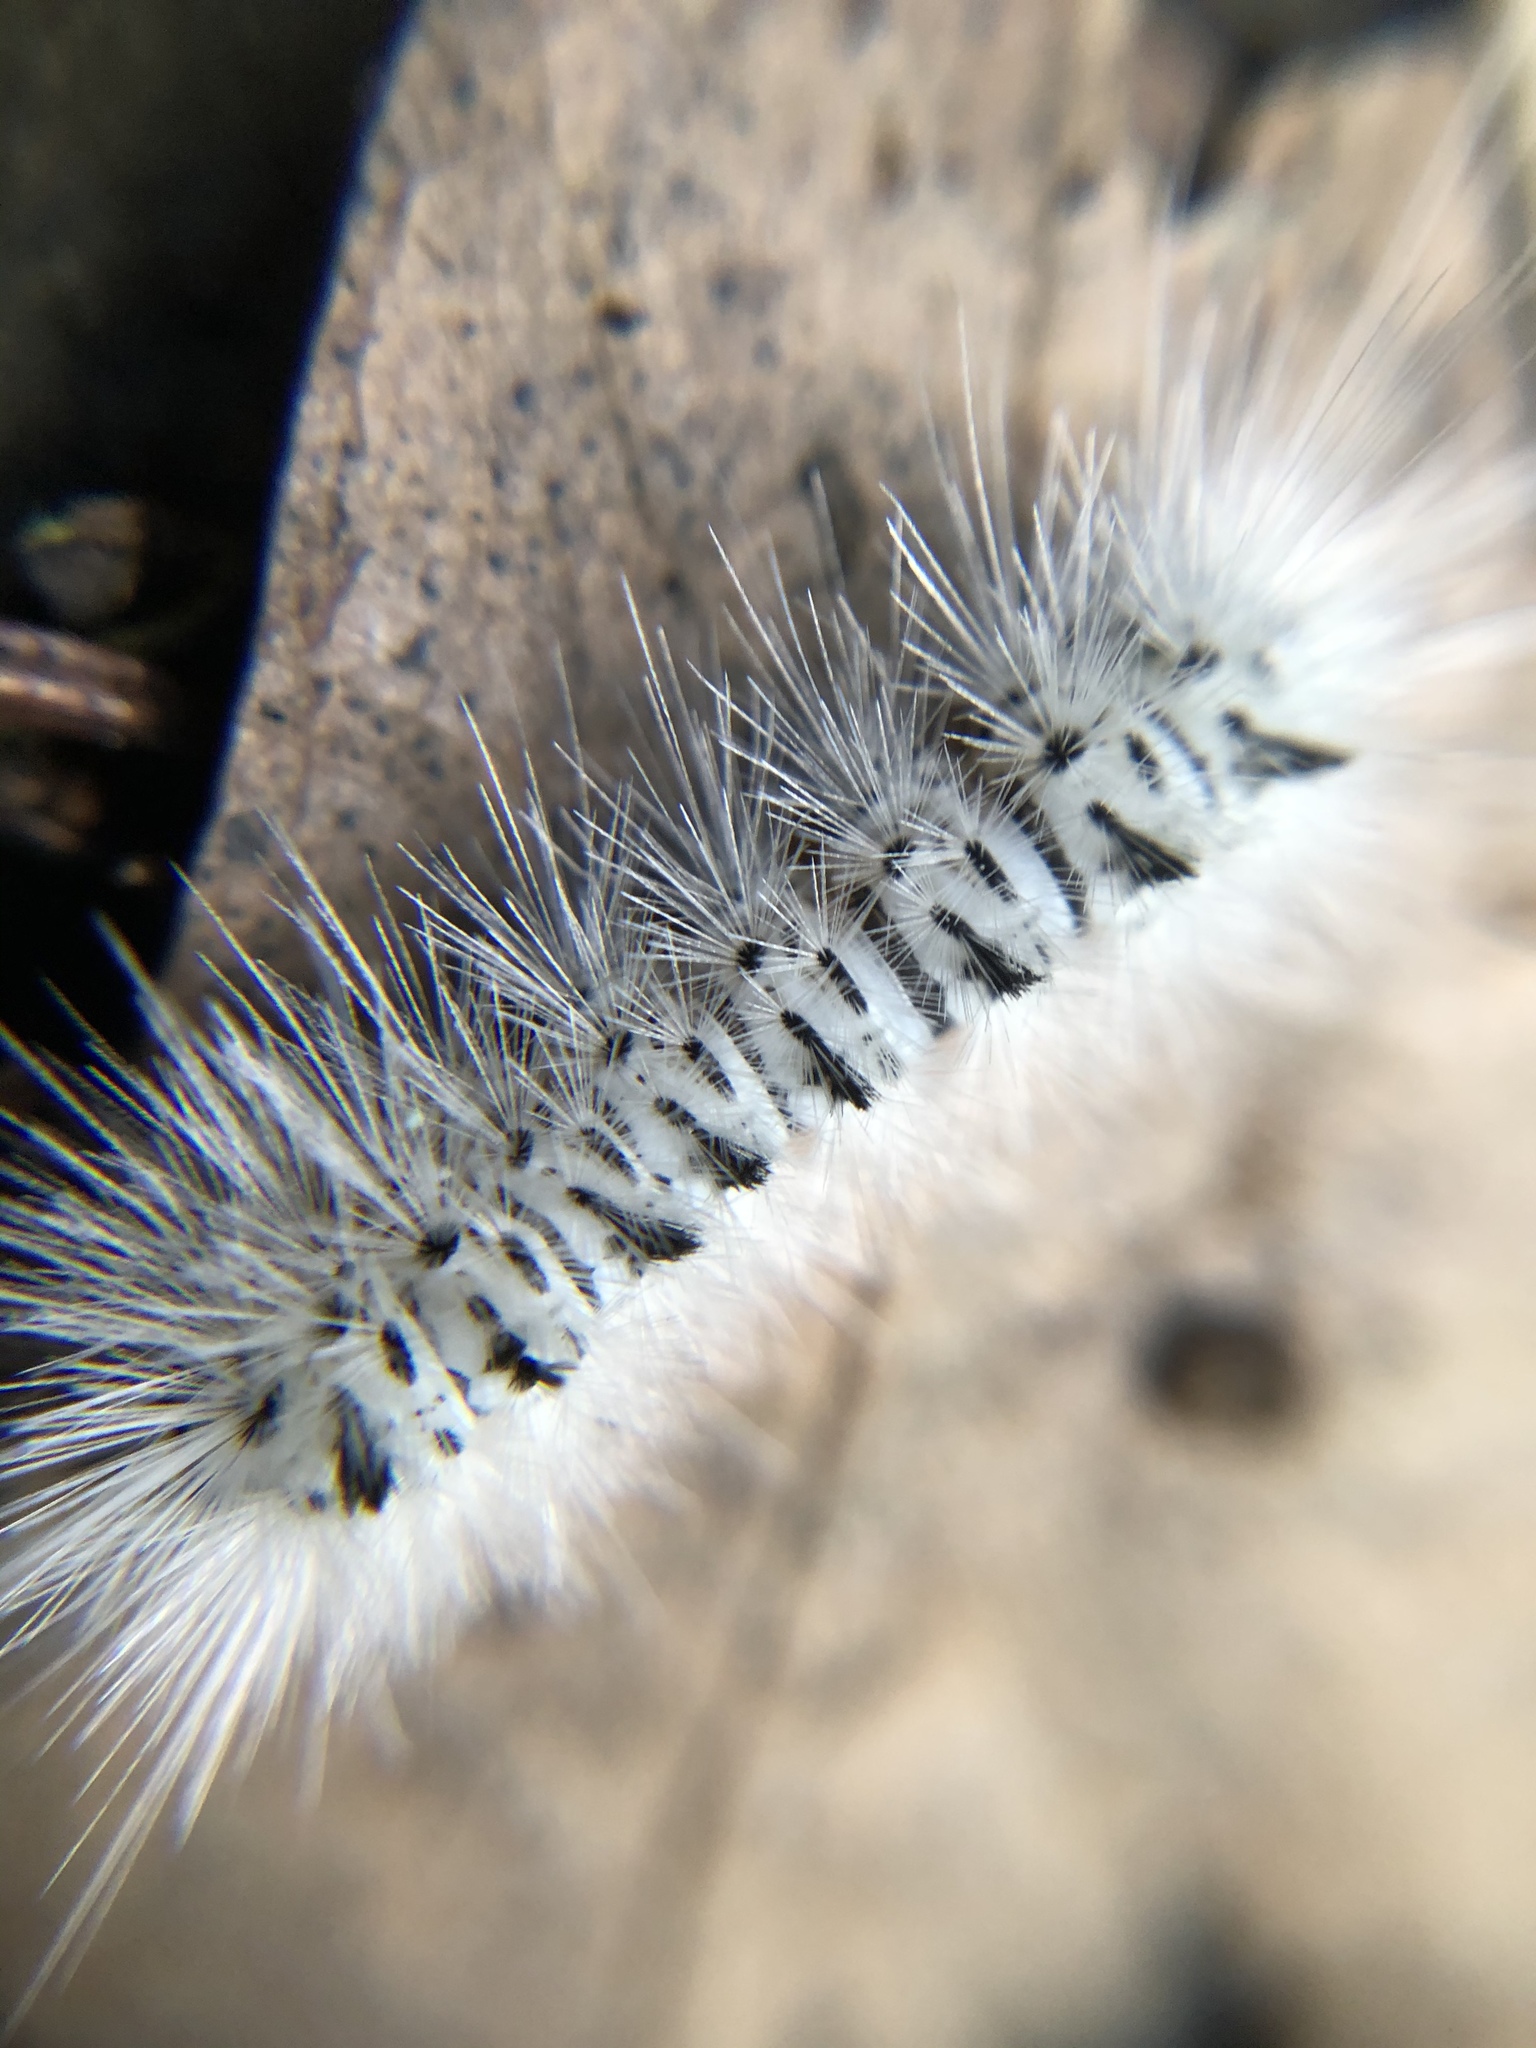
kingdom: Animalia
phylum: Arthropoda
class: Insecta
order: Lepidoptera
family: Erebidae
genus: Lophocampa
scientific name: Lophocampa caryae
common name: Hickory tussock moth
